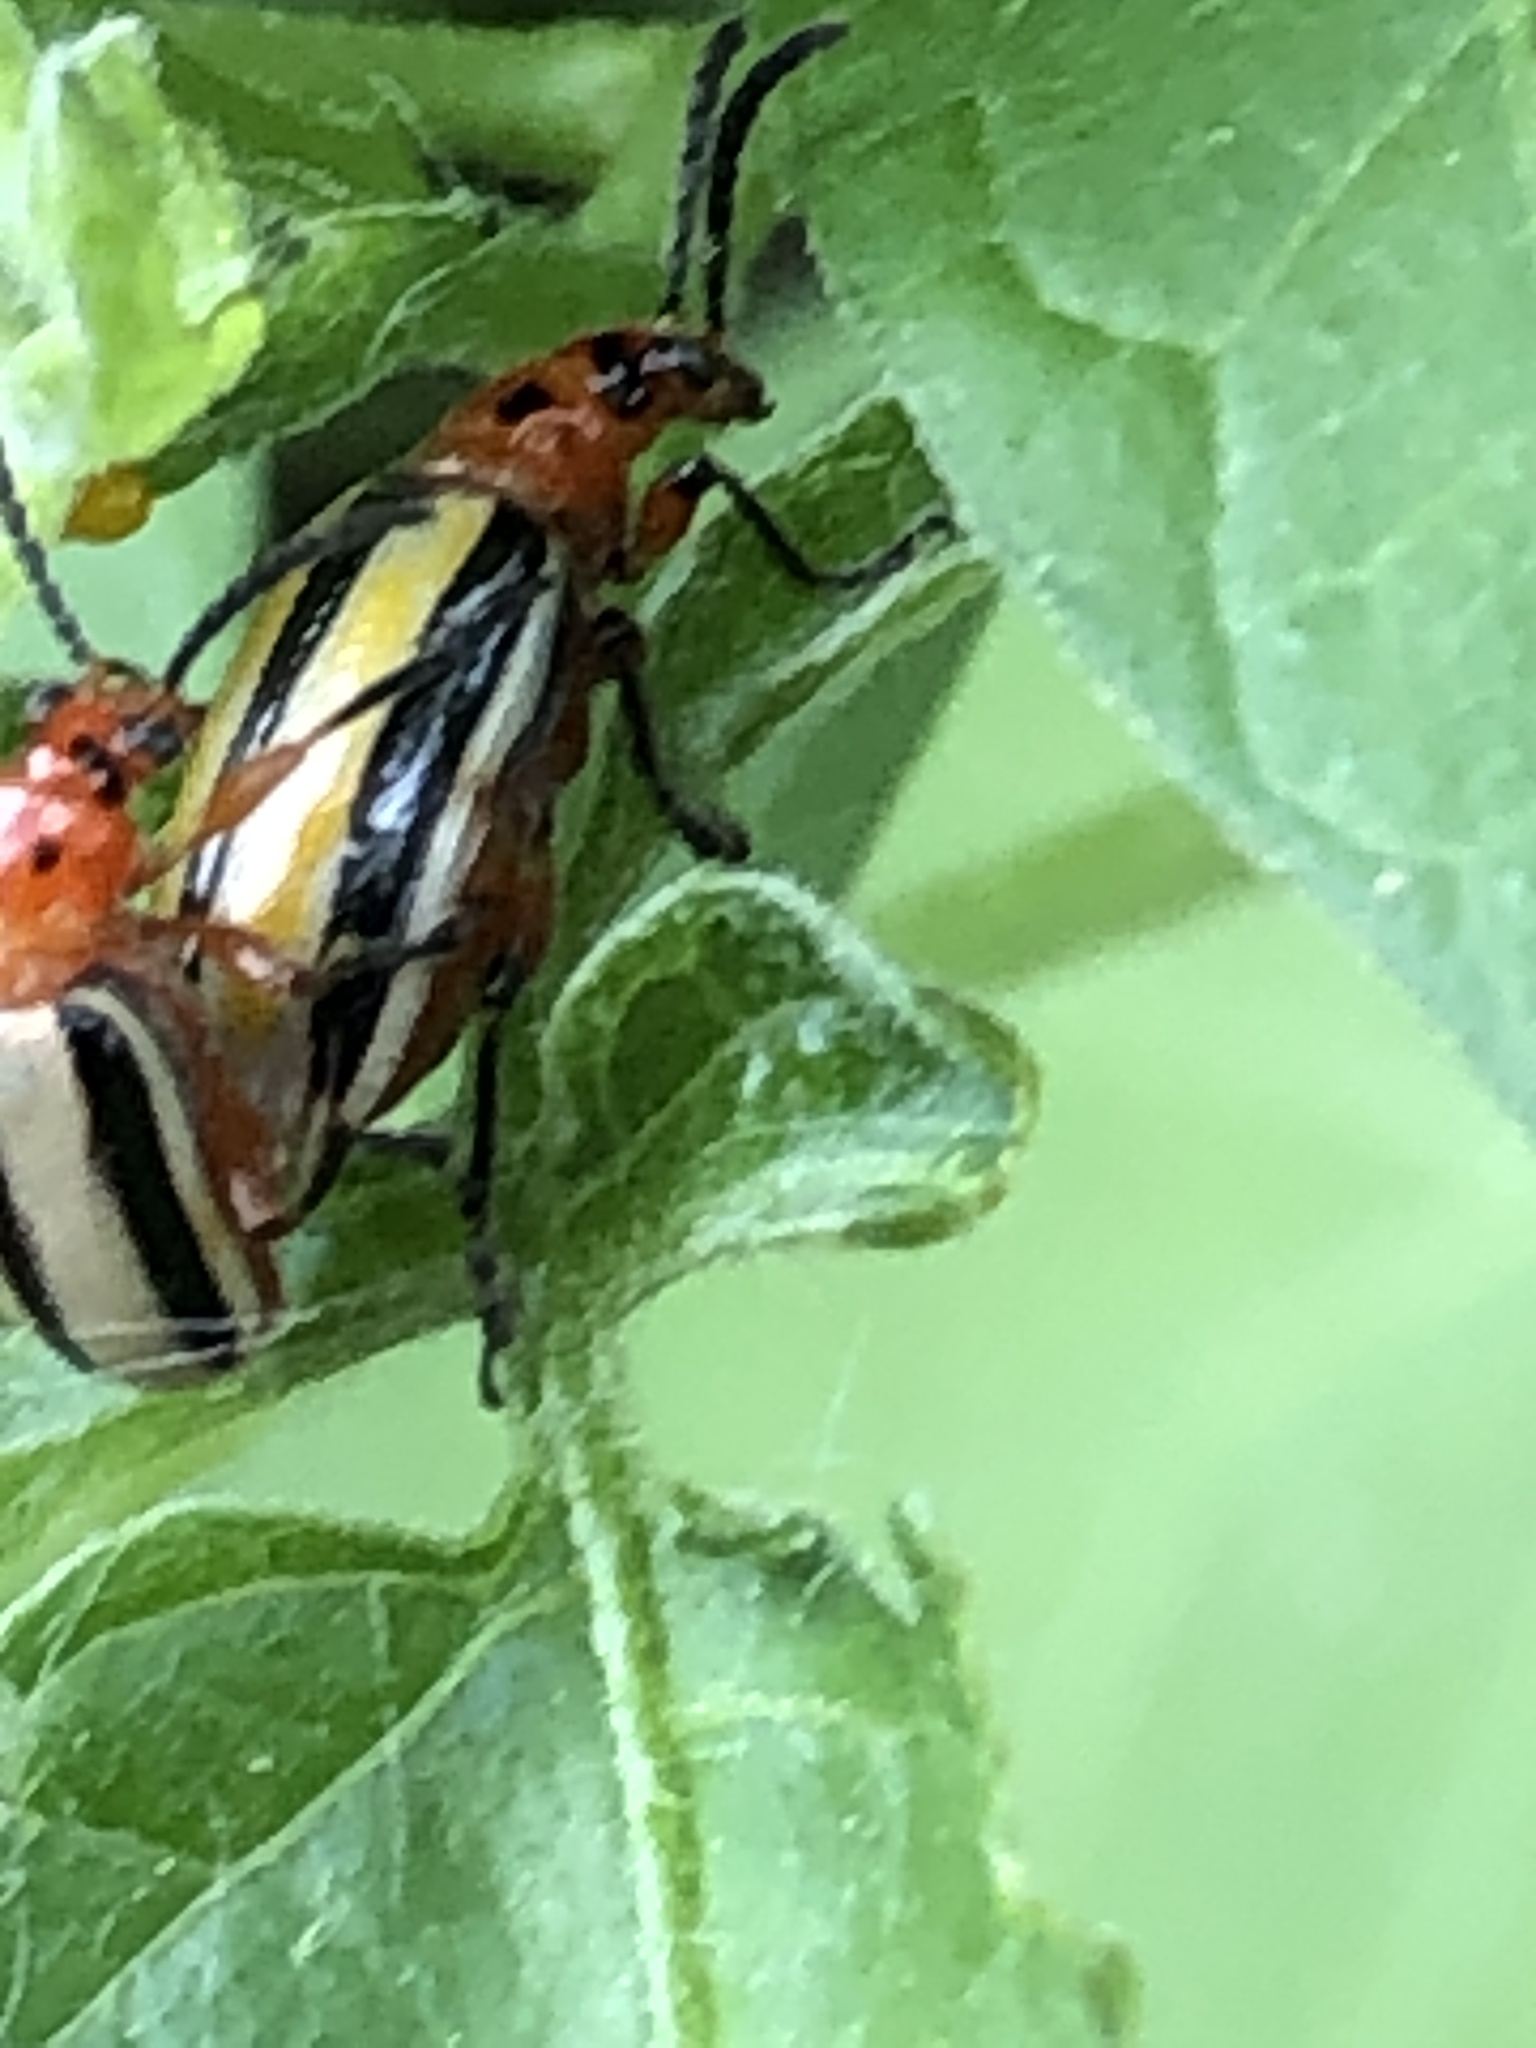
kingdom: Animalia
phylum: Arthropoda
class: Insecta
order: Coleoptera
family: Chrysomelidae
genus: Lema
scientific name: Lema daturaphila
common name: Leaf beetle
